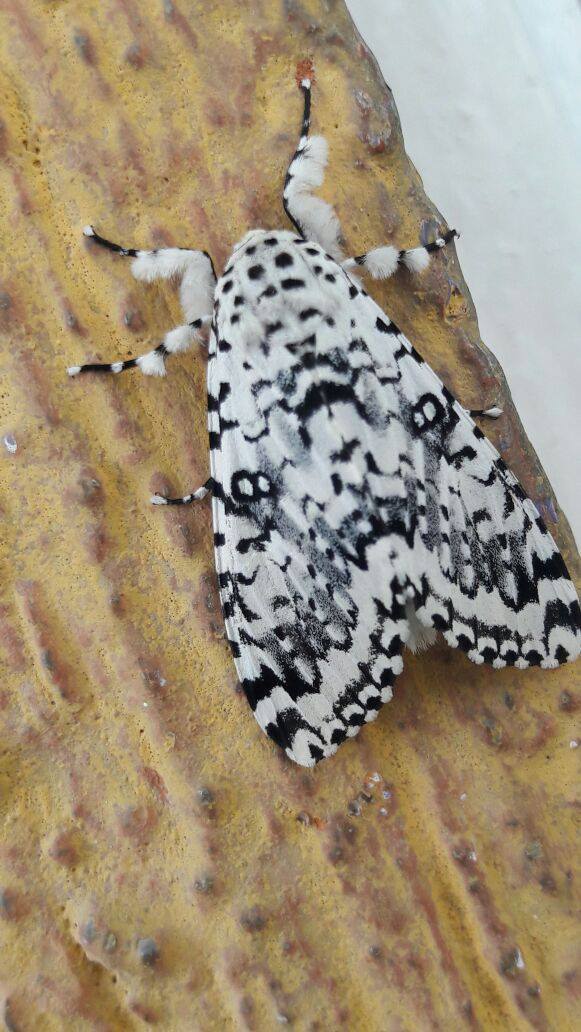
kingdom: Animalia
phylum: Arthropoda
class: Insecta
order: Lepidoptera
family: Noctuidae
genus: Lichnoptera
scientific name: Lichnoptera decora
